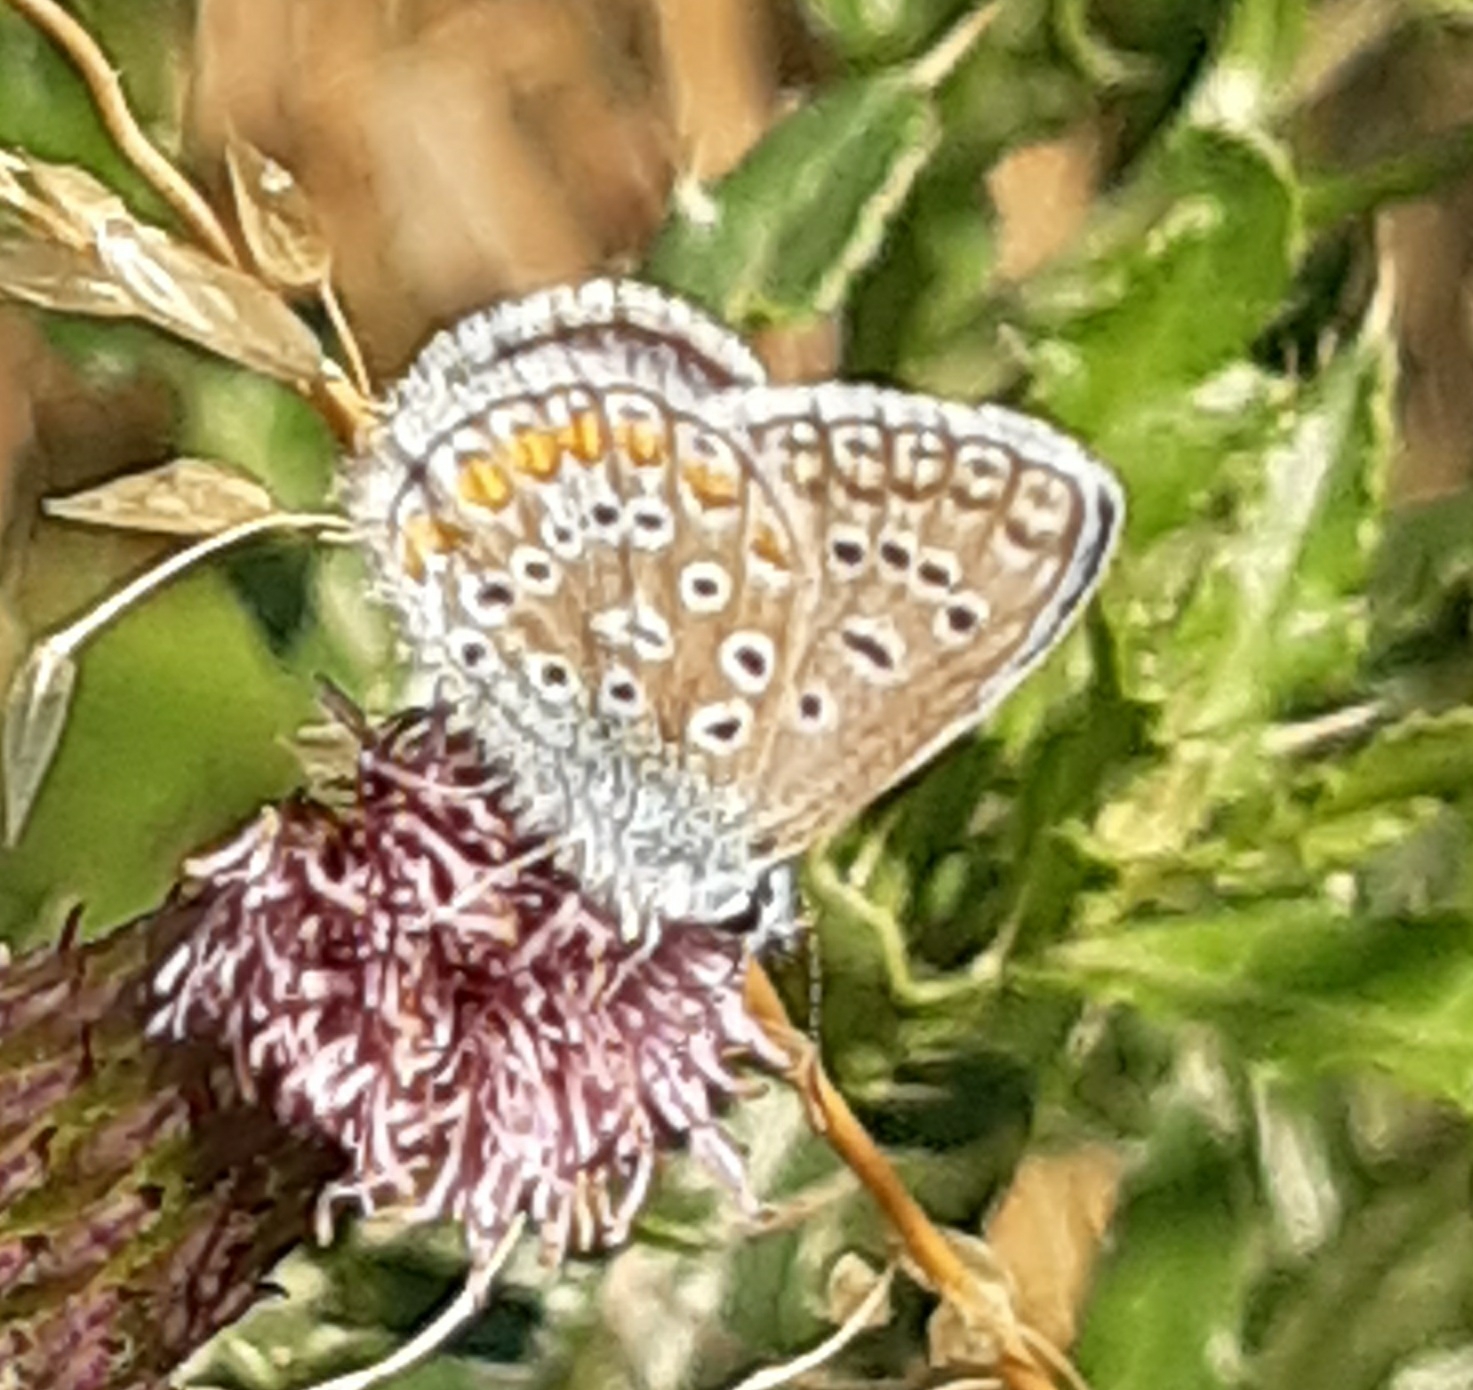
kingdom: Animalia
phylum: Arthropoda
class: Insecta
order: Lepidoptera
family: Lycaenidae
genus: Polyommatus
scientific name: Polyommatus icarus
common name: Common blue
